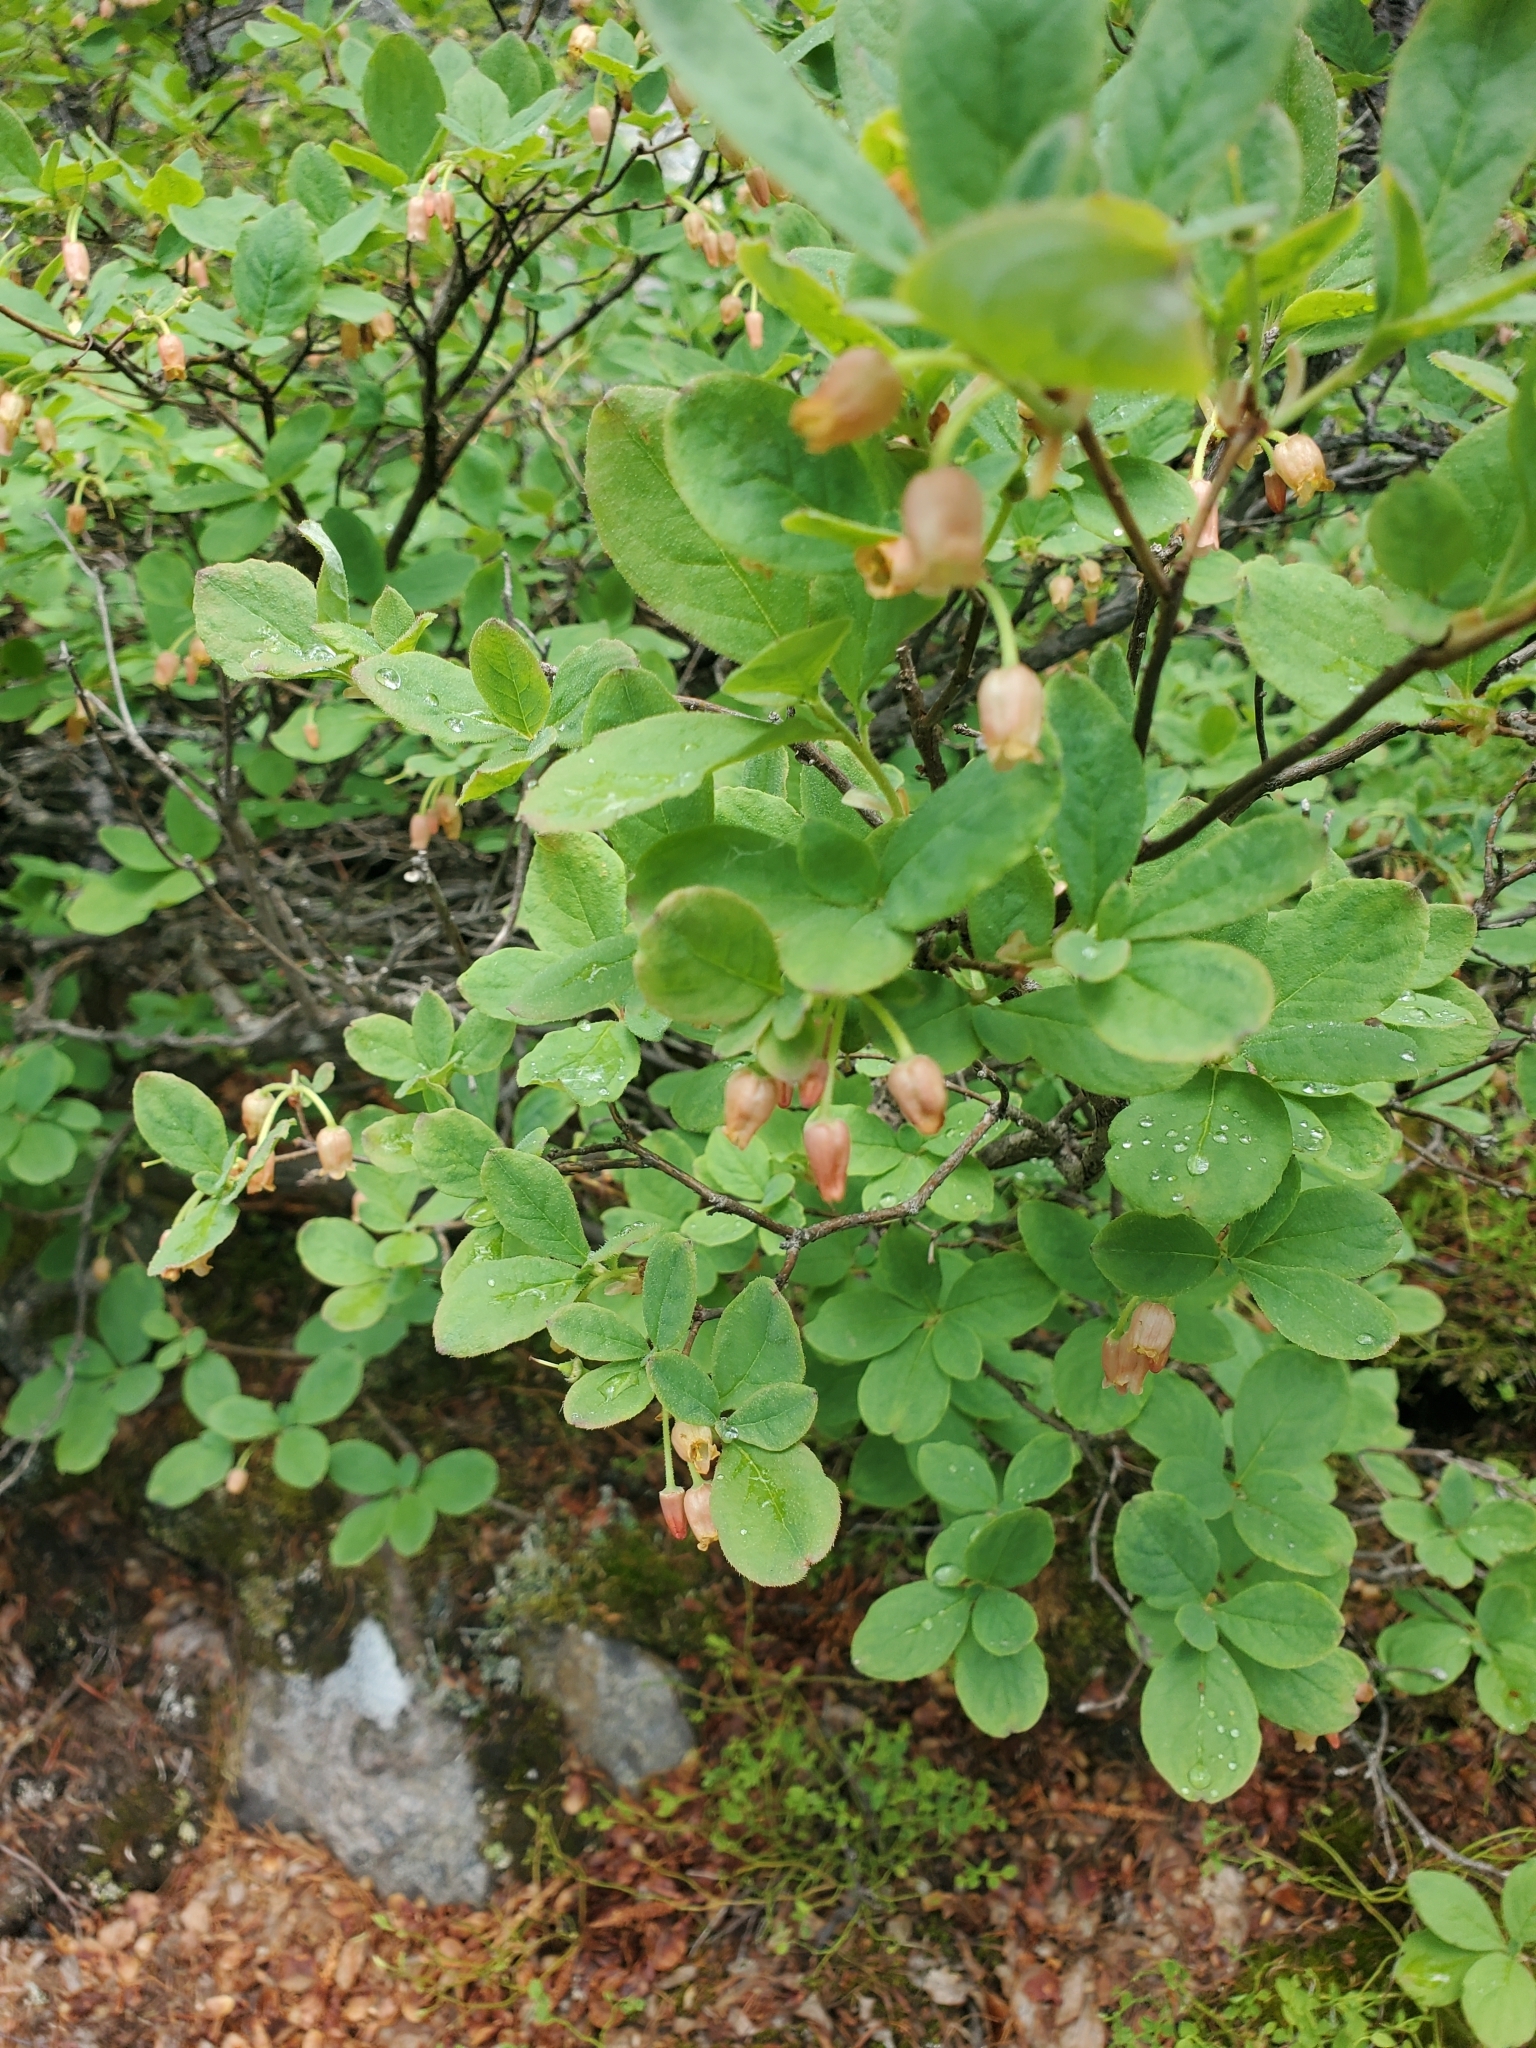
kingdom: Plantae
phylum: Tracheophyta
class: Magnoliopsida
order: Ericales
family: Ericaceae
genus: Rhododendron
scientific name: Rhododendron menziesii
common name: Pacific menziesia
